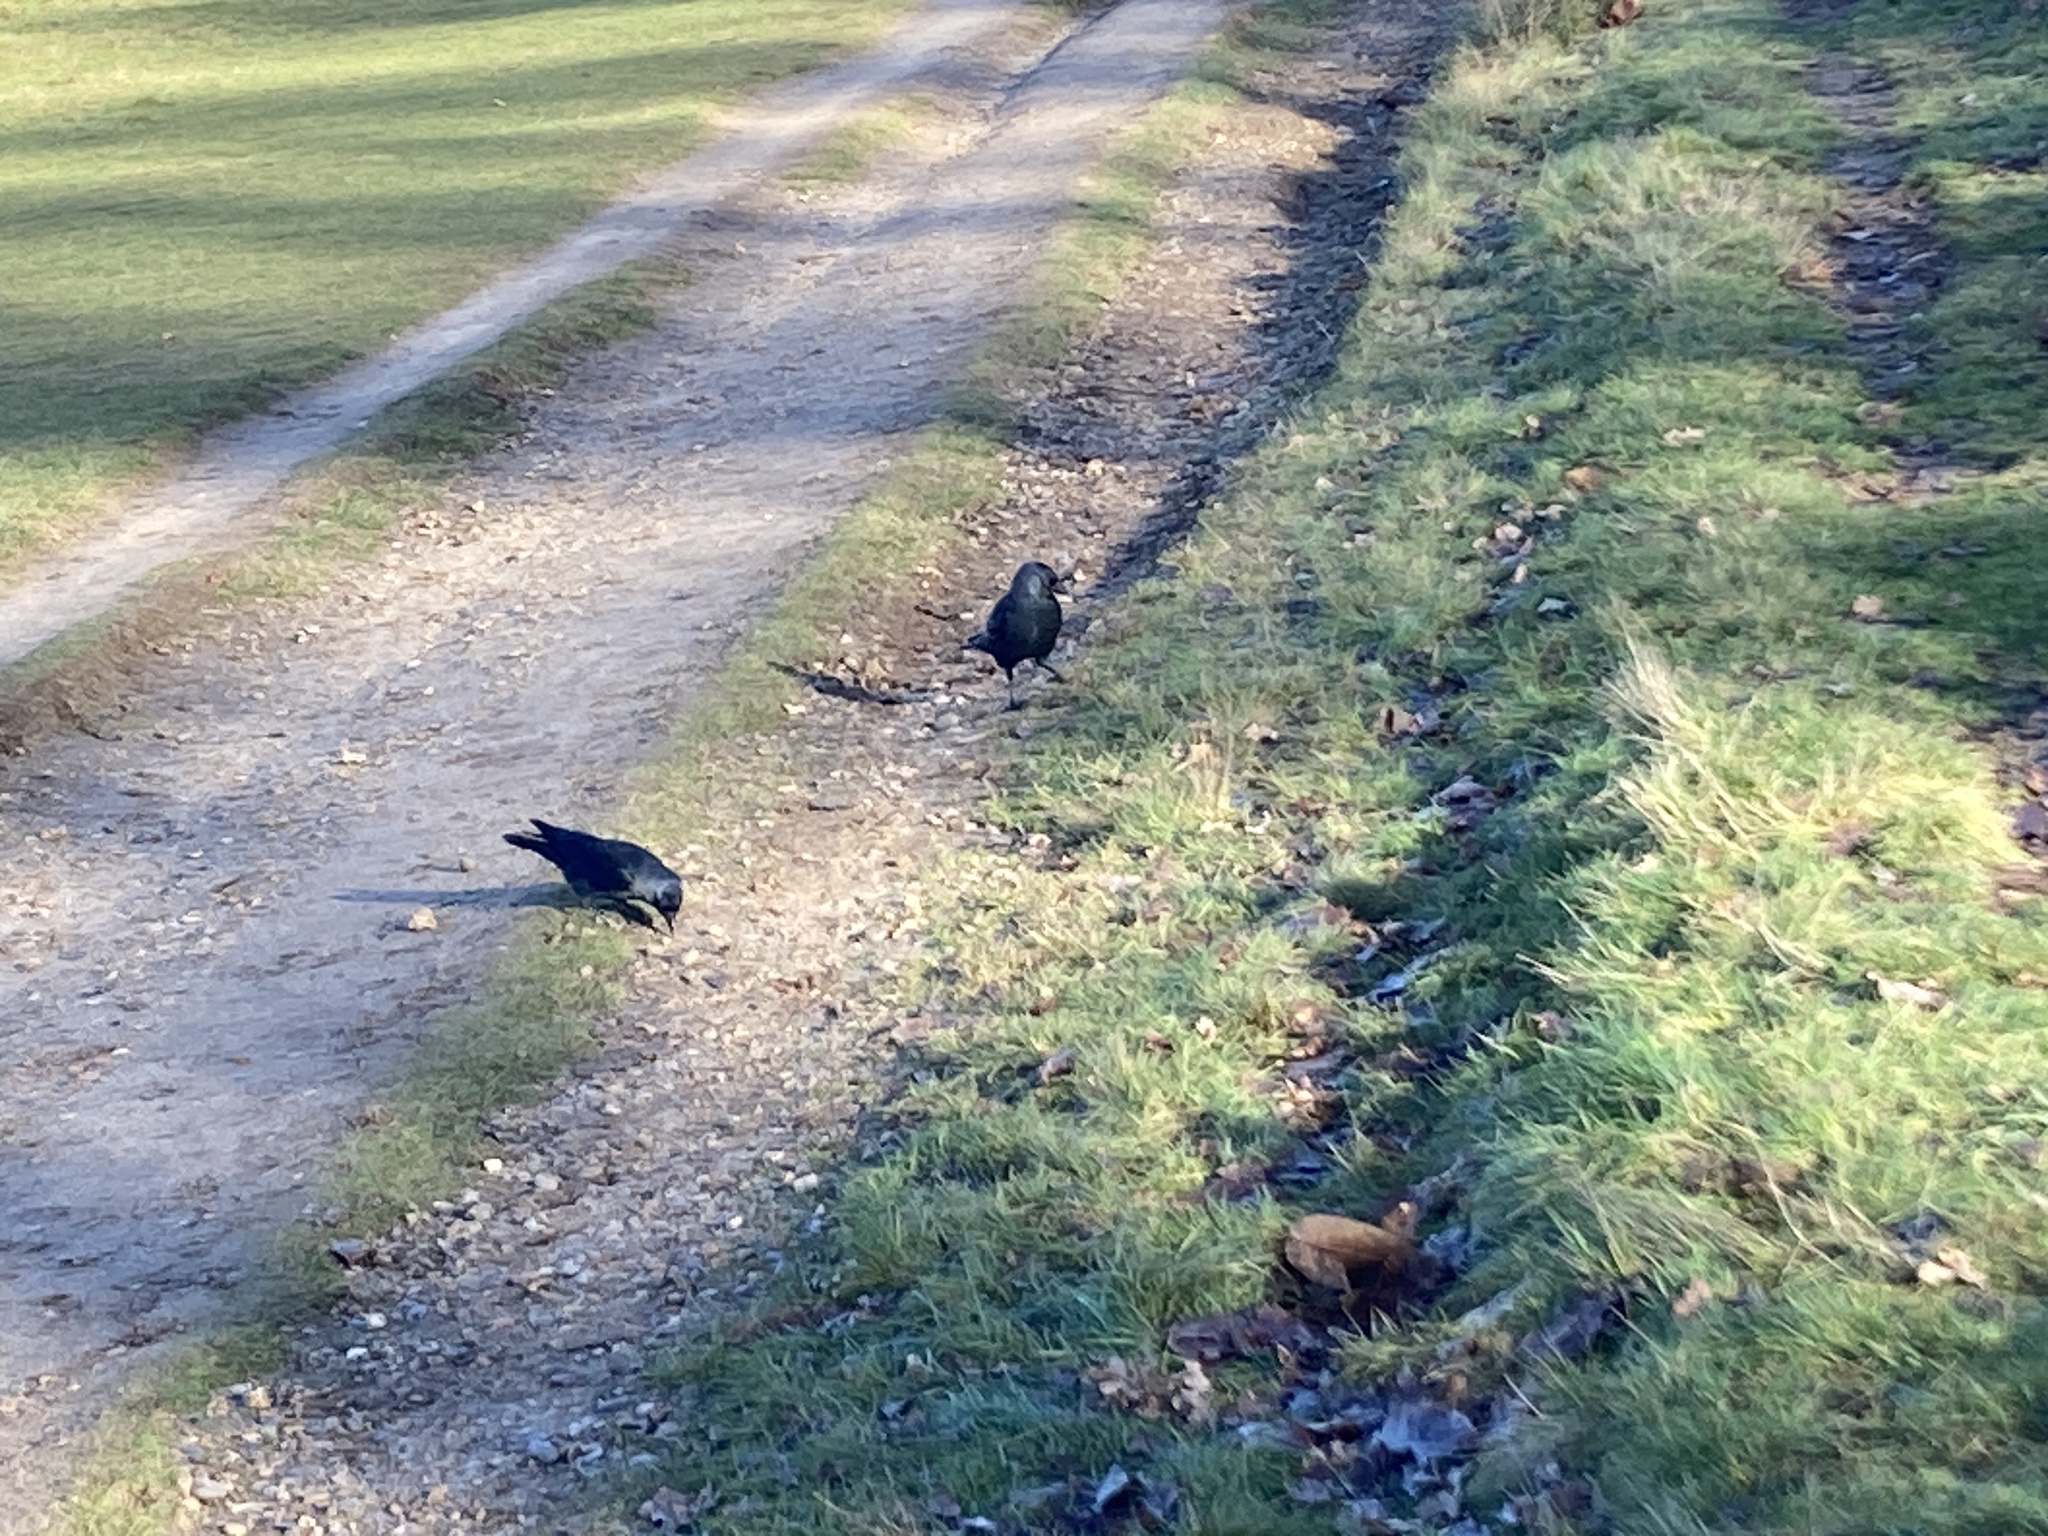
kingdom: Animalia
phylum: Chordata
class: Aves
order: Passeriformes
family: Corvidae
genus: Coloeus
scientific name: Coloeus monedula
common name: Western jackdaw
